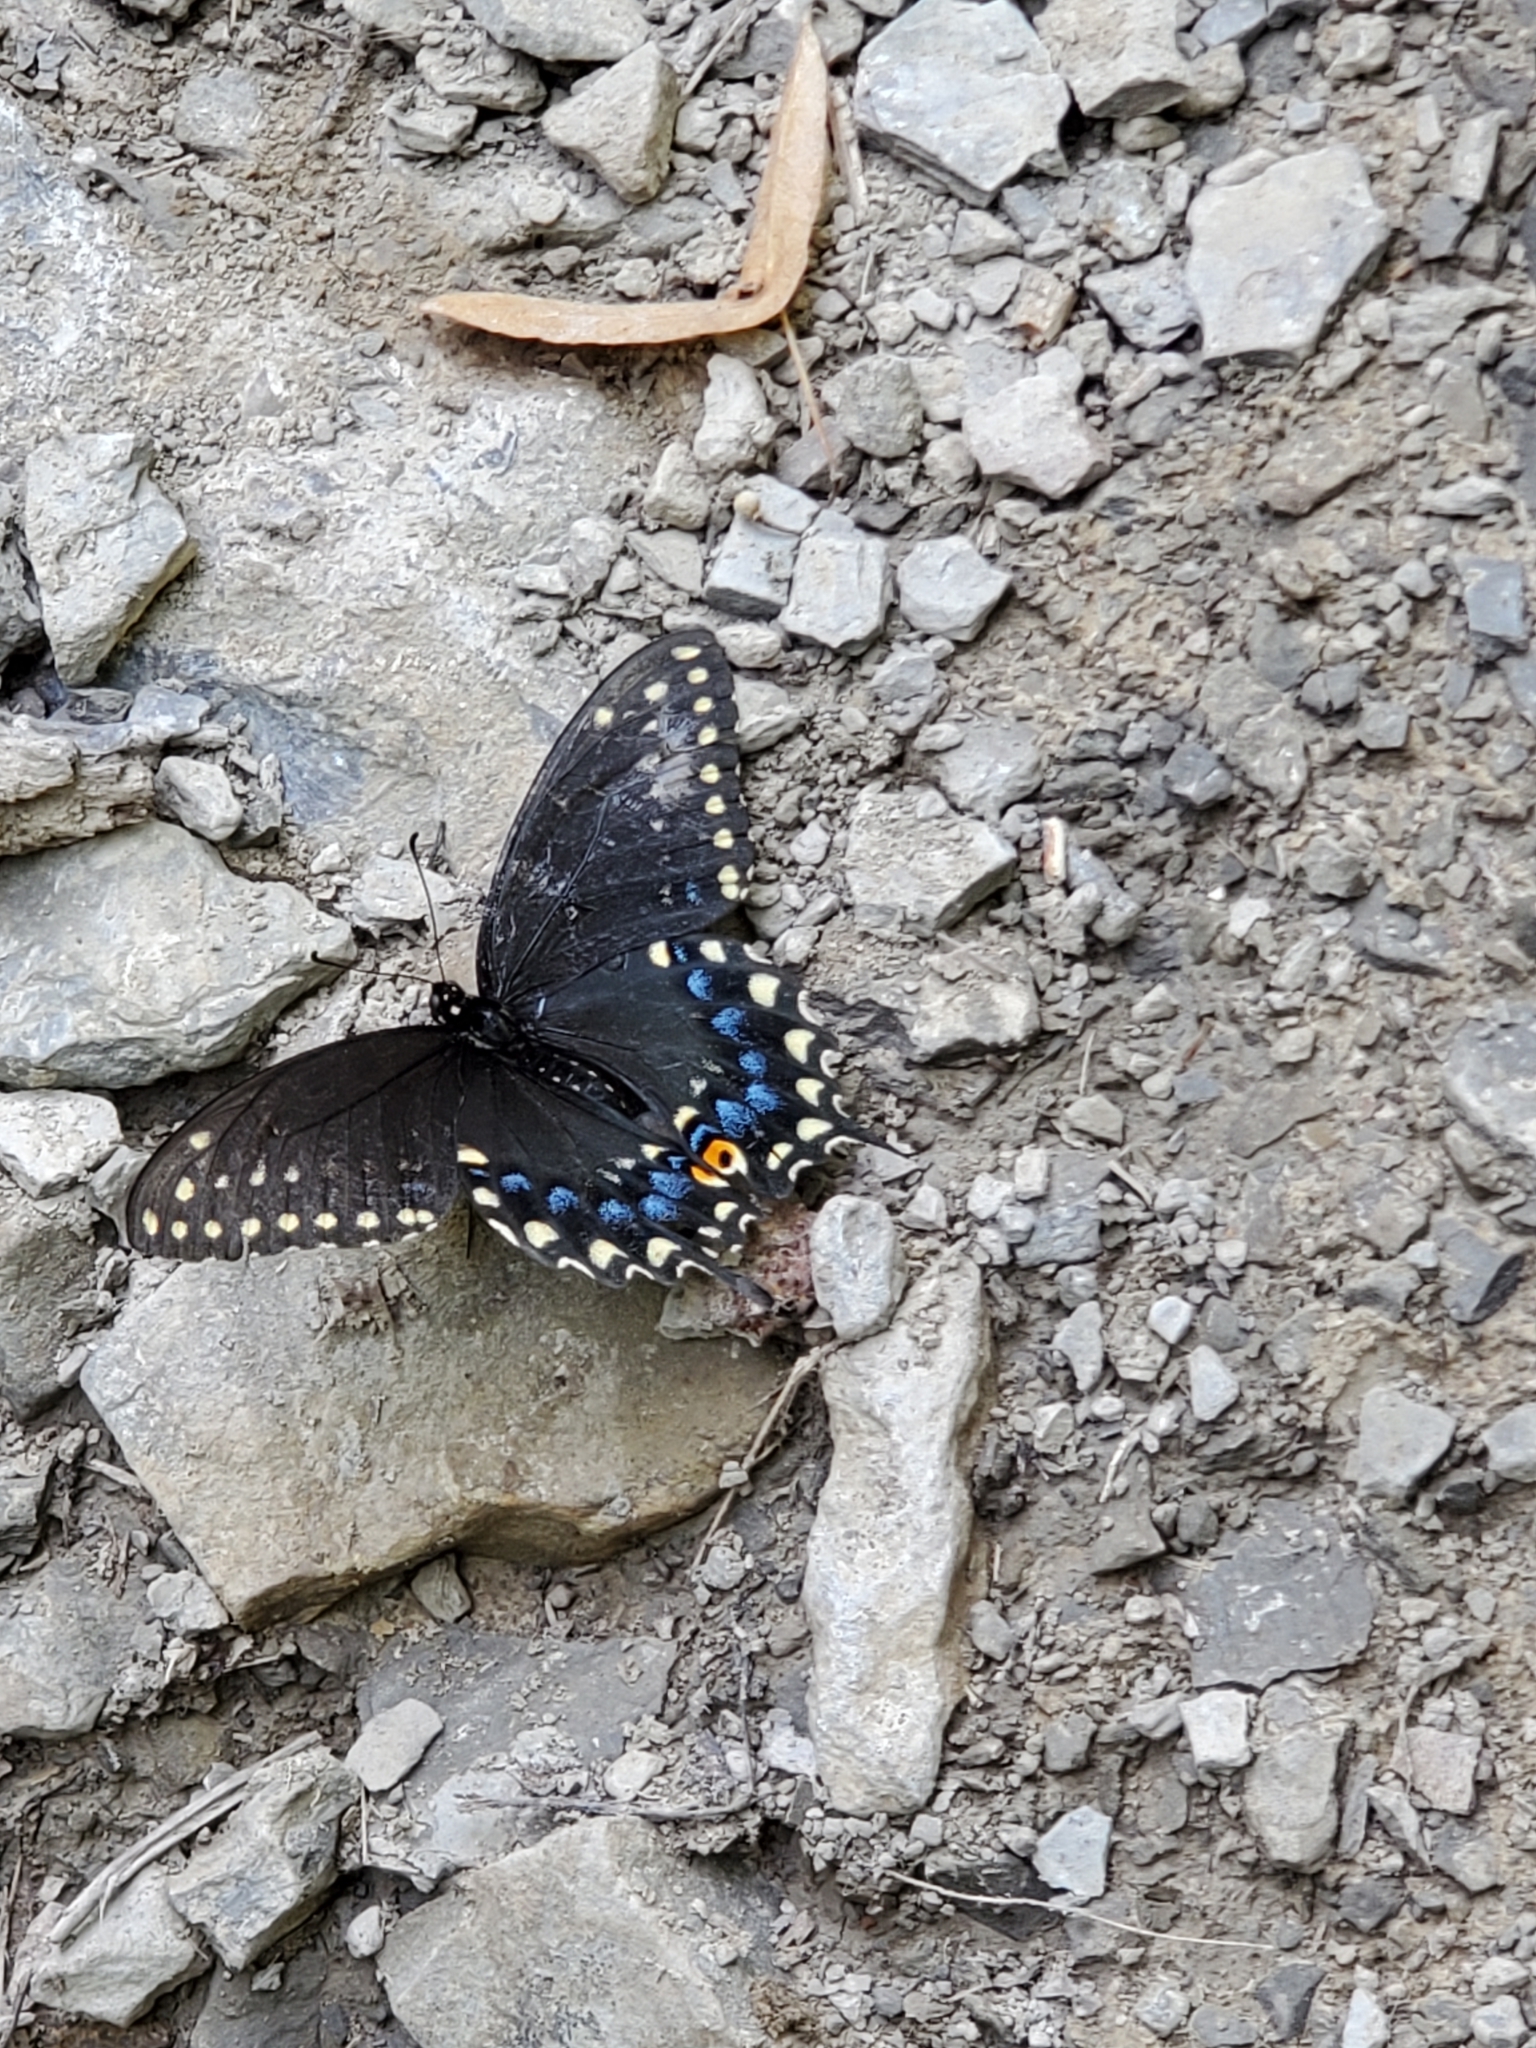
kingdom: Animalia
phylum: Arthropoda
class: Insecta
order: Lepidoptera
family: Papilionidae
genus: Papilio
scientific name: Papilio polyxenes
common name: Black swallowtail
